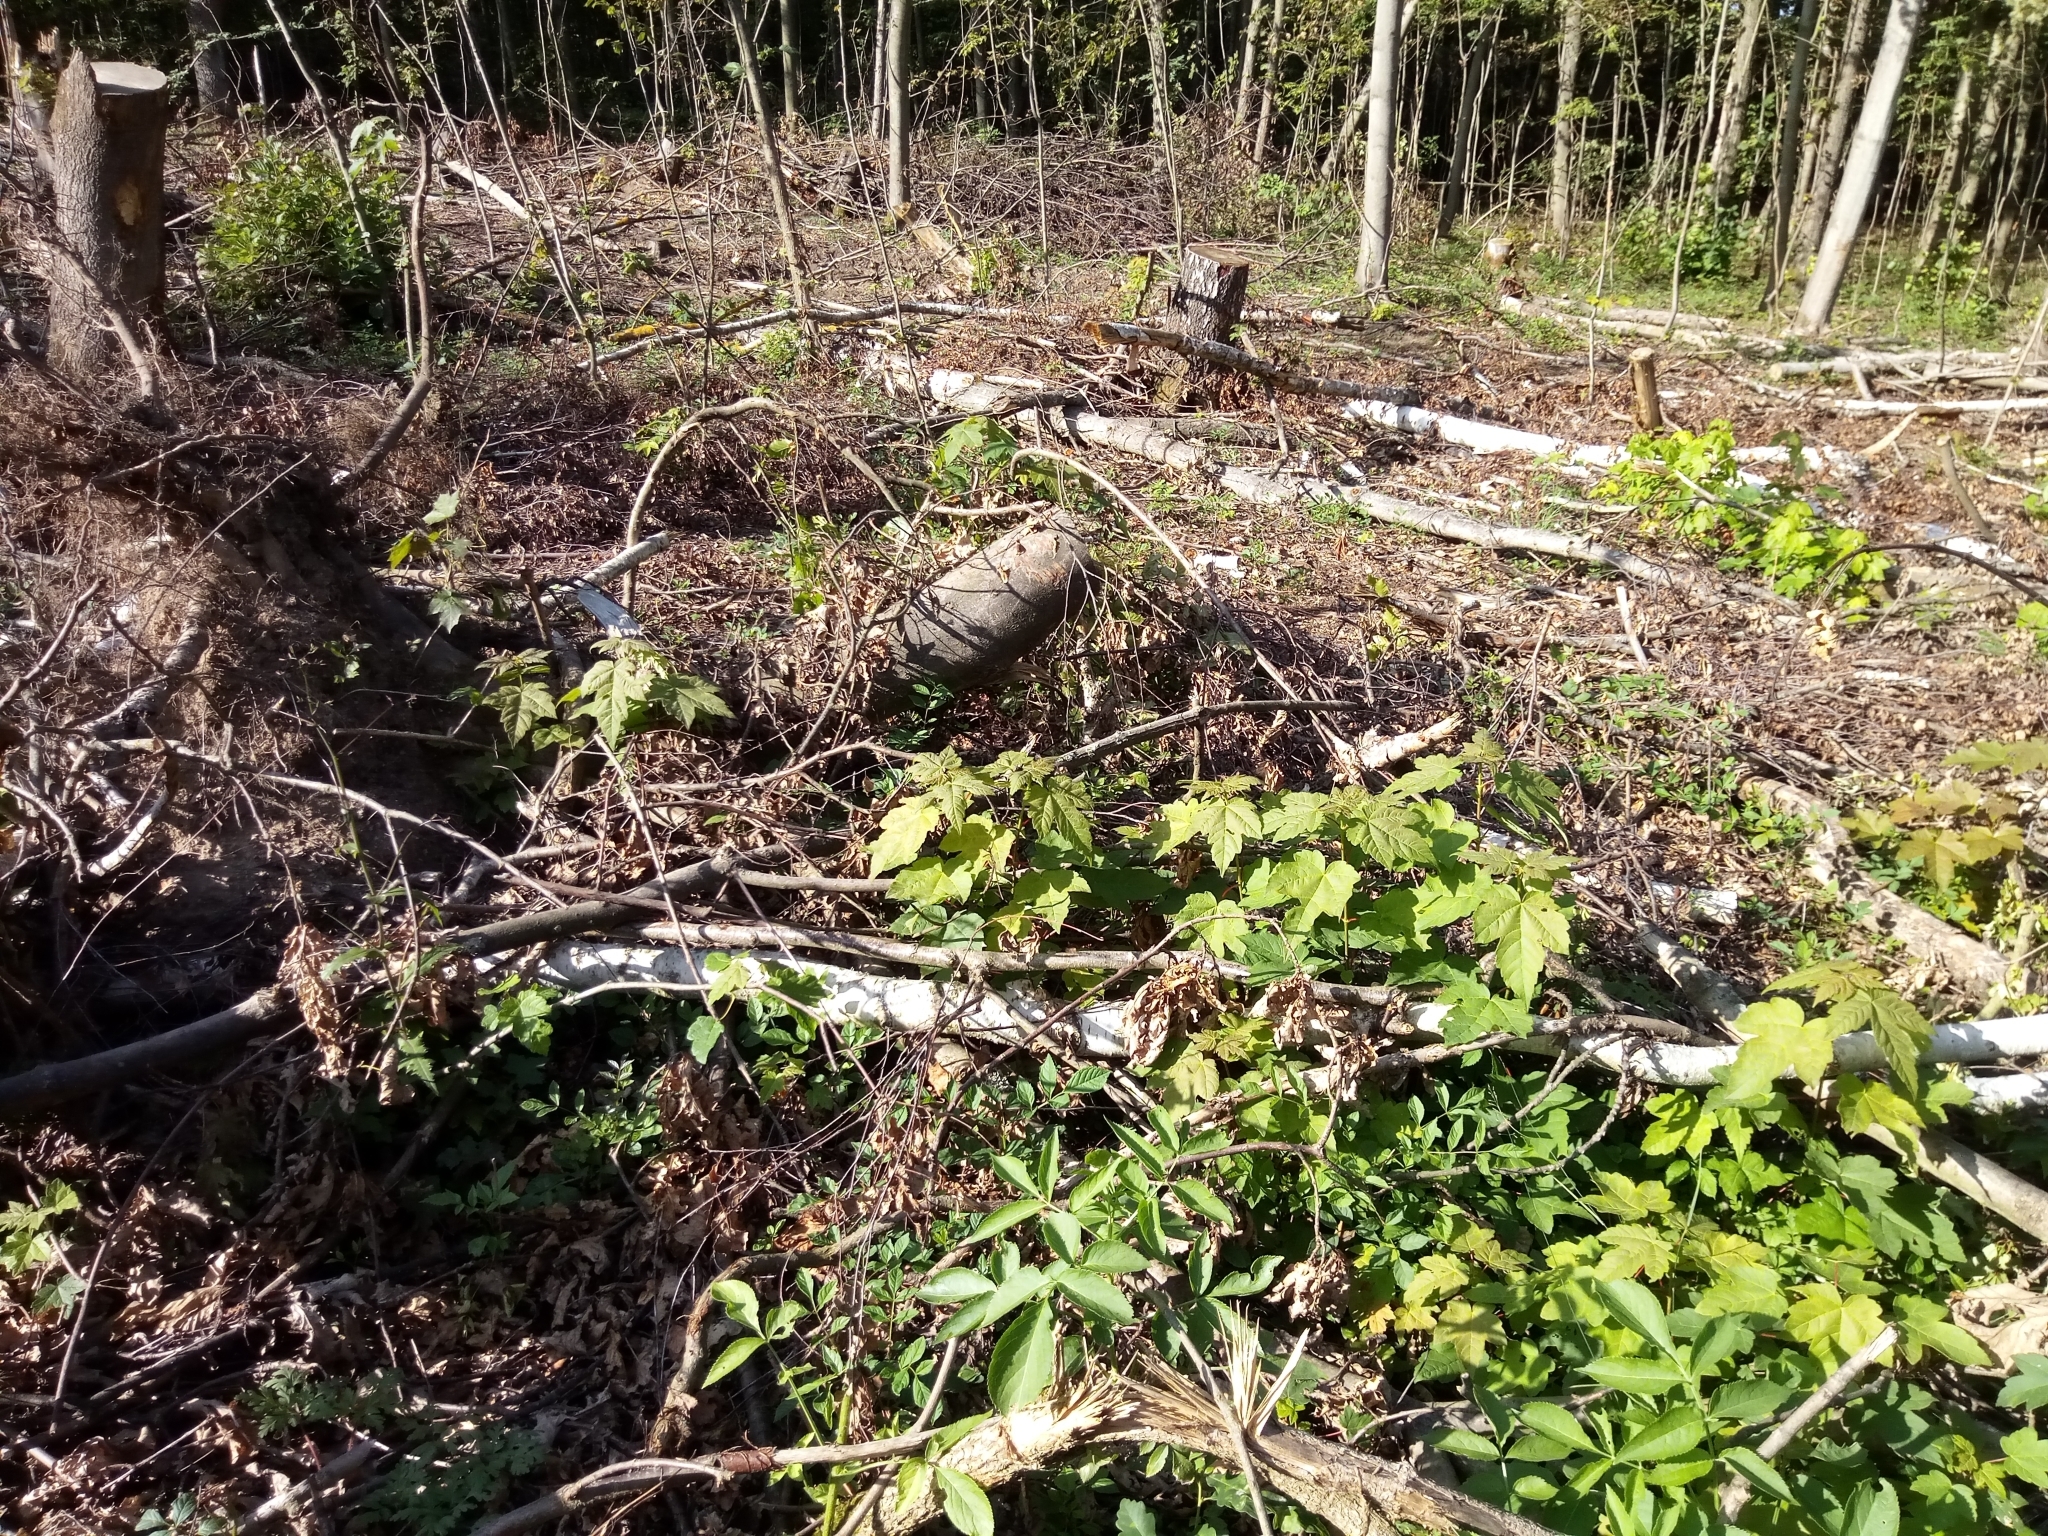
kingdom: Plantae
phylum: Tracheophyta
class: Magnoliopsida
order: Sapindales
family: Sapindaceae
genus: Acer
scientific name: Acer pseudoplatanus
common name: Sycamore
